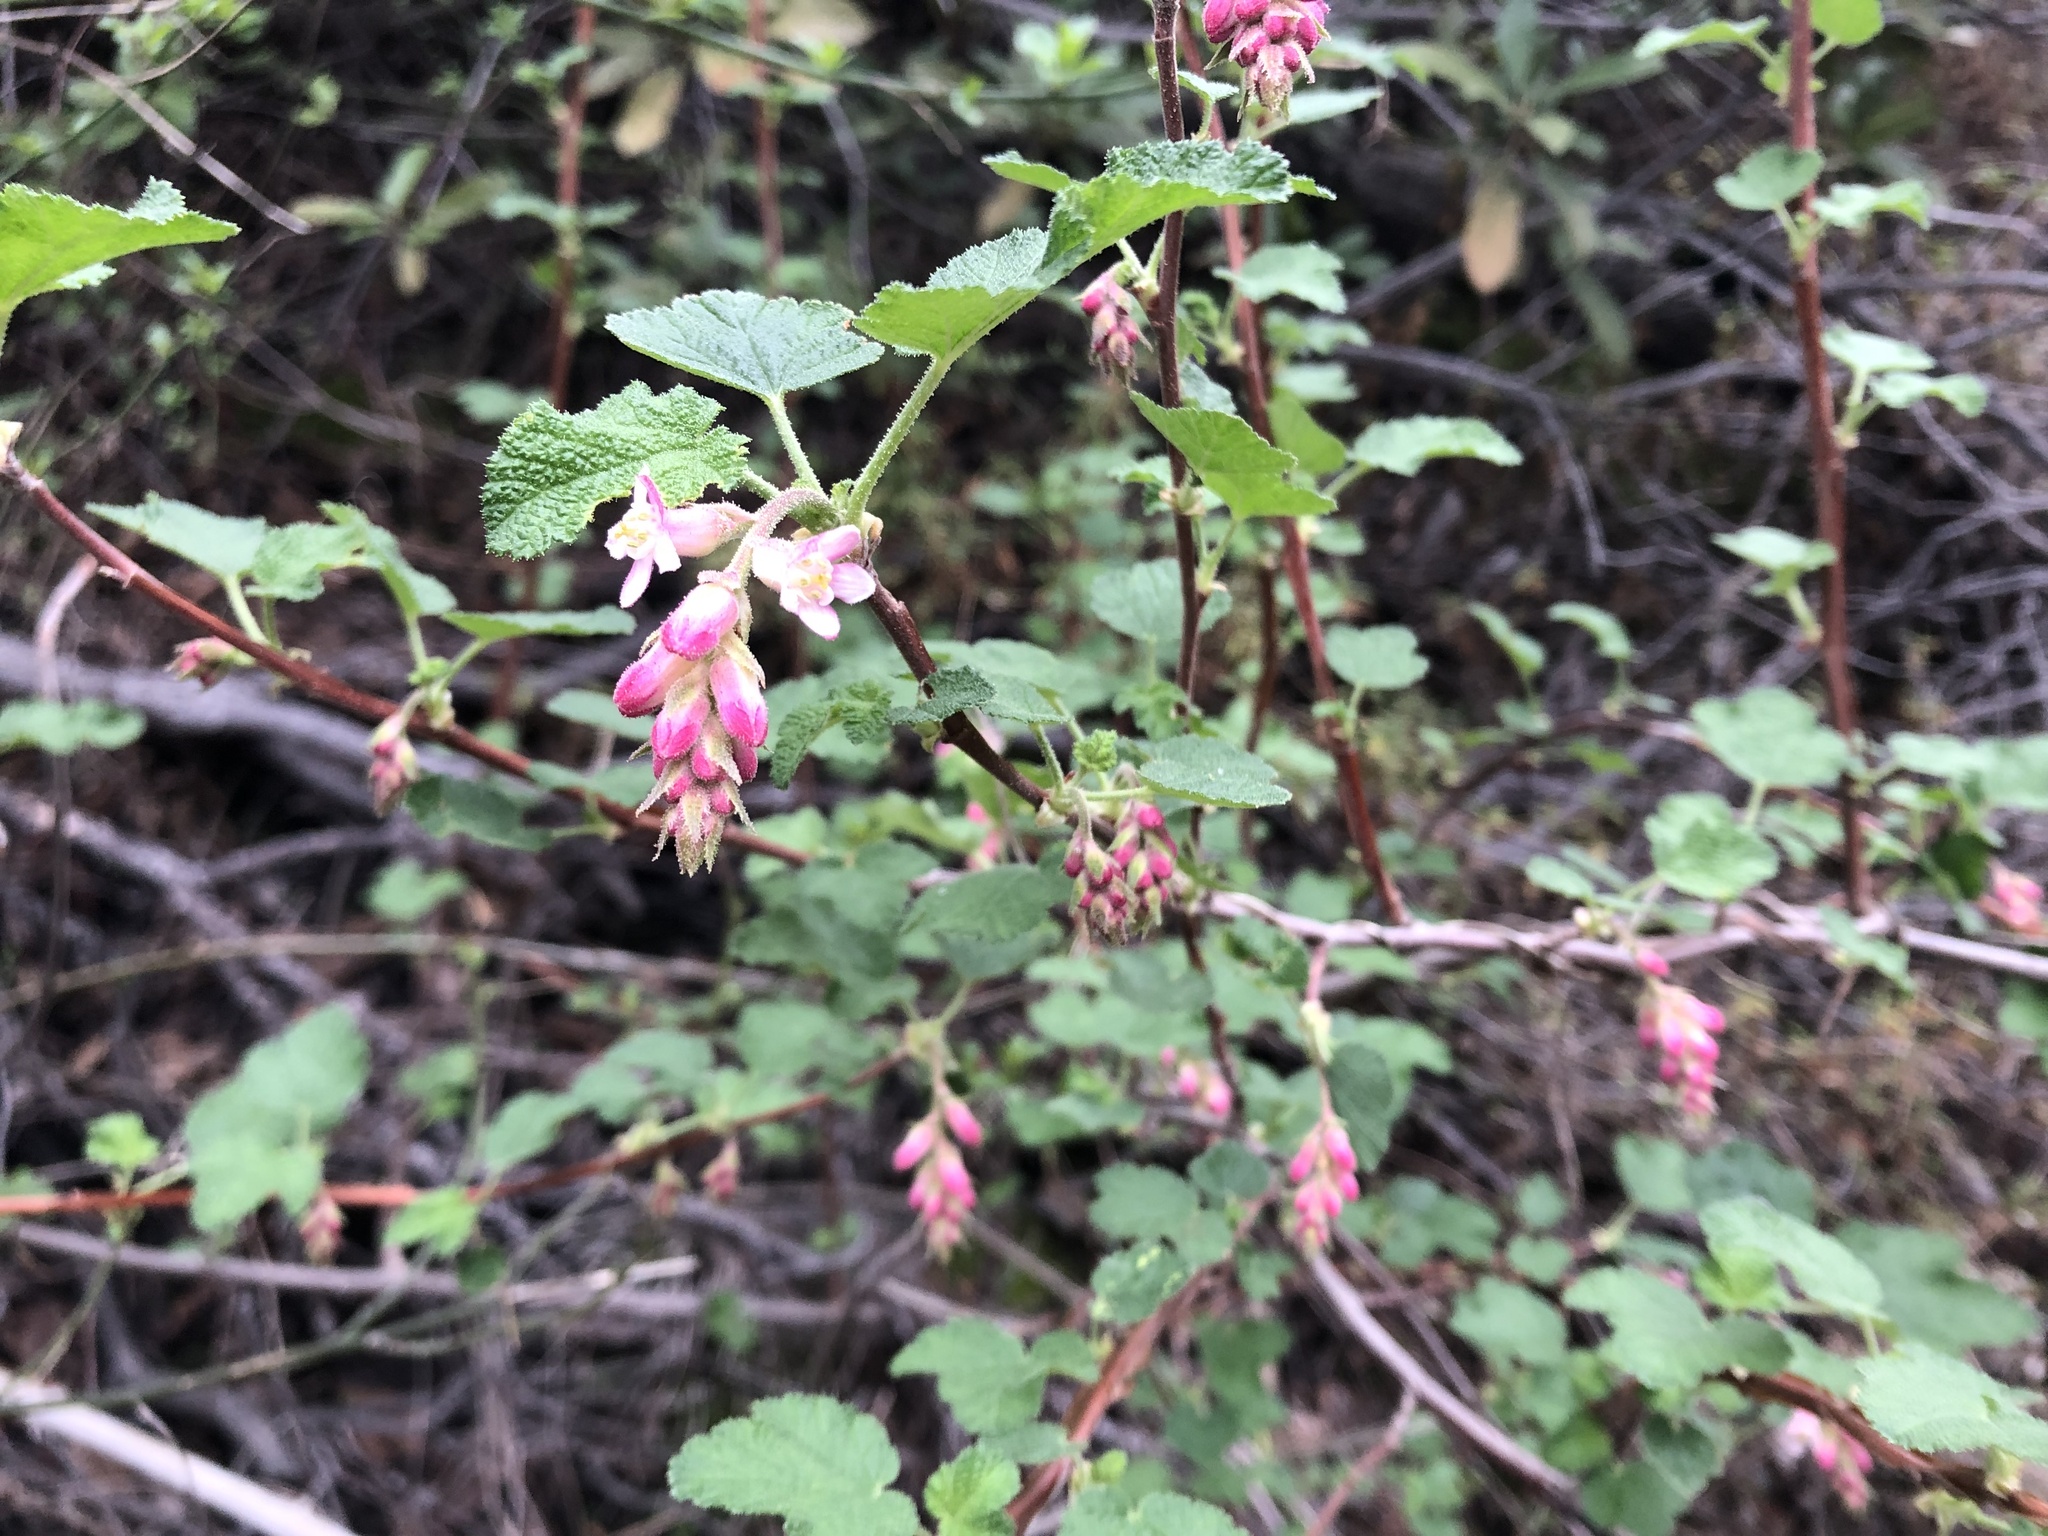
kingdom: Plantae
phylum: Tracheophyta
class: Magnoliopsida
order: Saxifragales
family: Grossulariaceae
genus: Ribes
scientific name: Ribes malvaceum
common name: Chaparral currant
